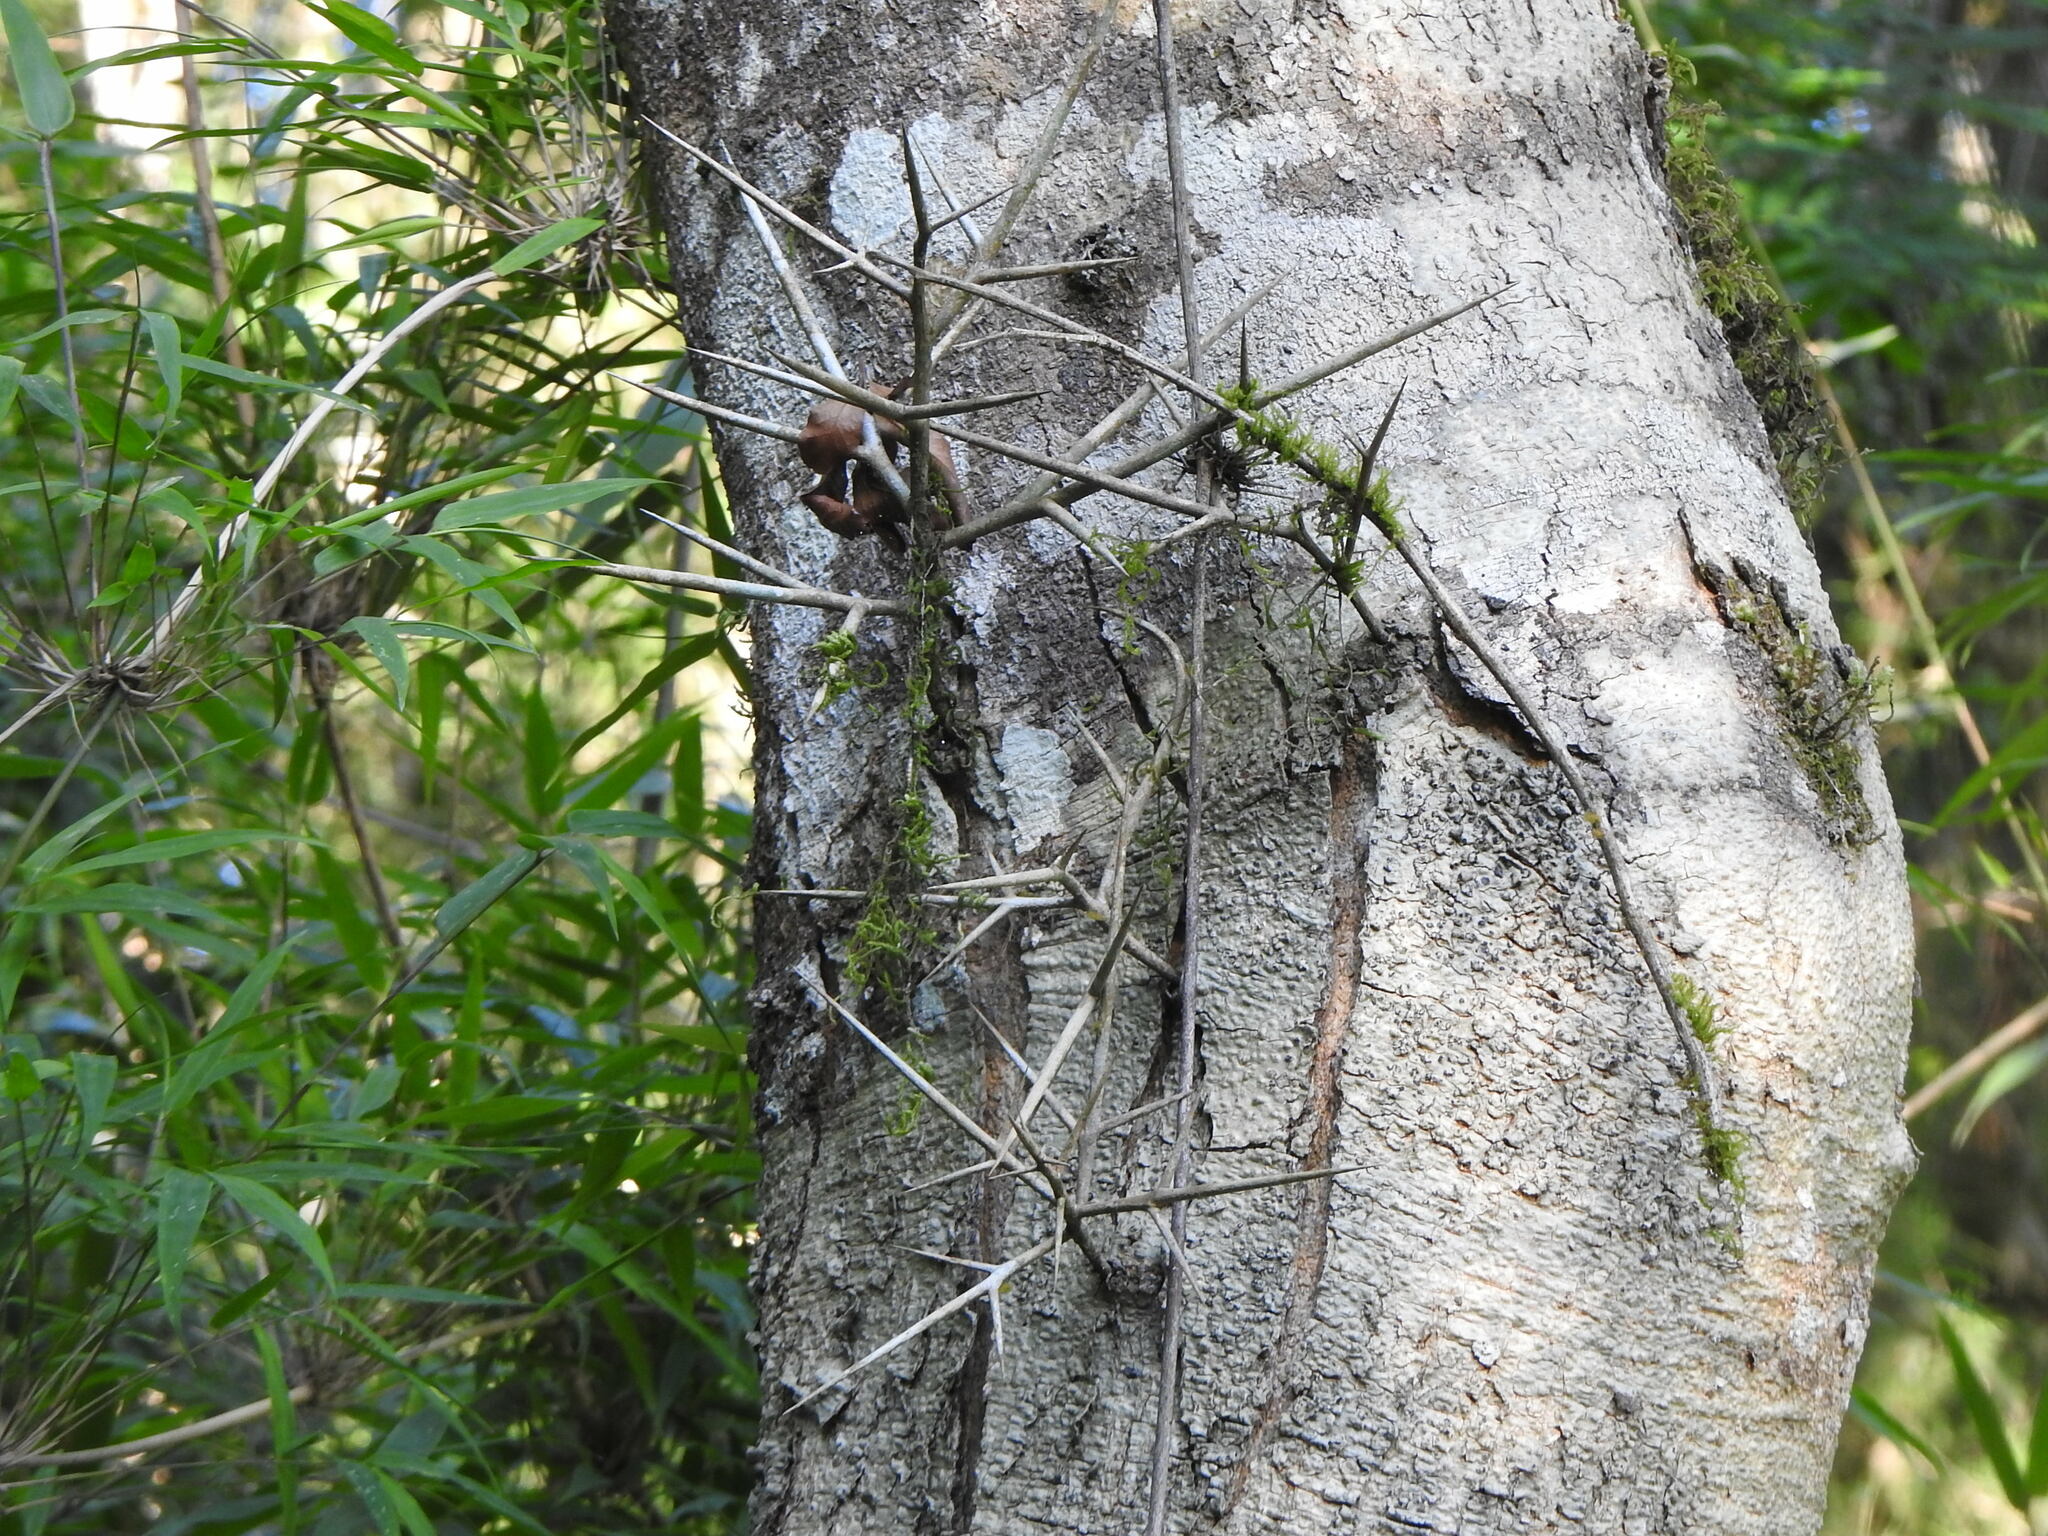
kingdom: Plantae
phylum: Tracheophyta
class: Magnoliopsida
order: Fabales
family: Fabaceae
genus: Gleditsia
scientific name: Gleditsia amorphoides
